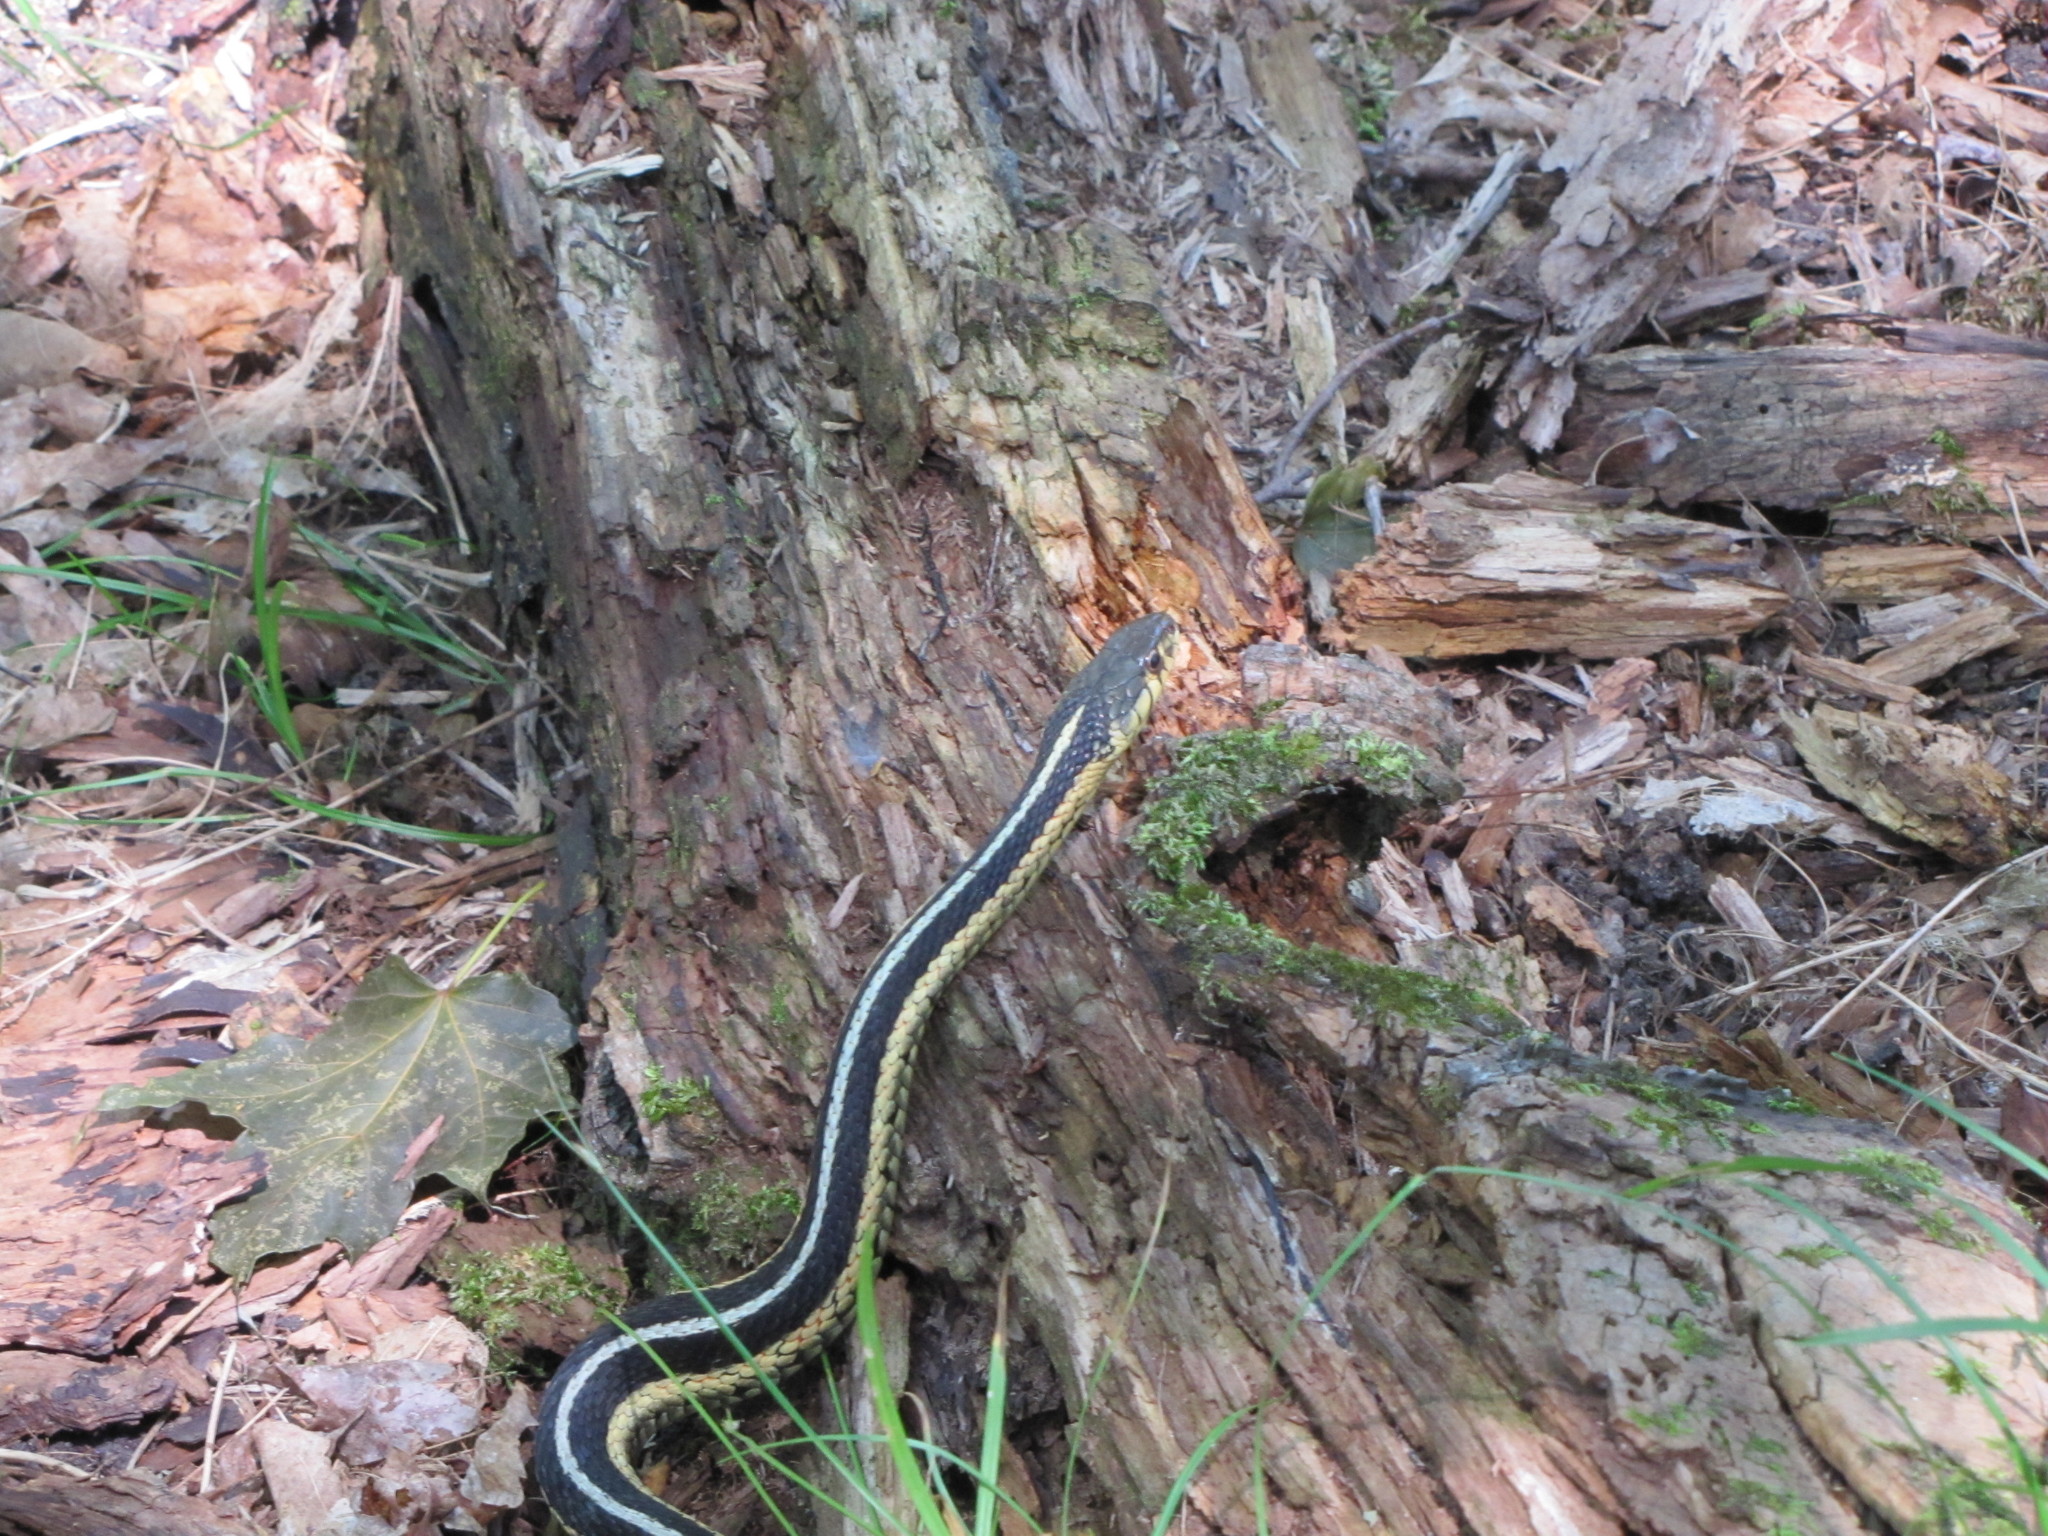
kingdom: Animalia
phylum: Chordata
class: Squamata
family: Colubridae
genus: Thamnophis
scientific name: Thamnophis sirtalis
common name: Common garter snake
